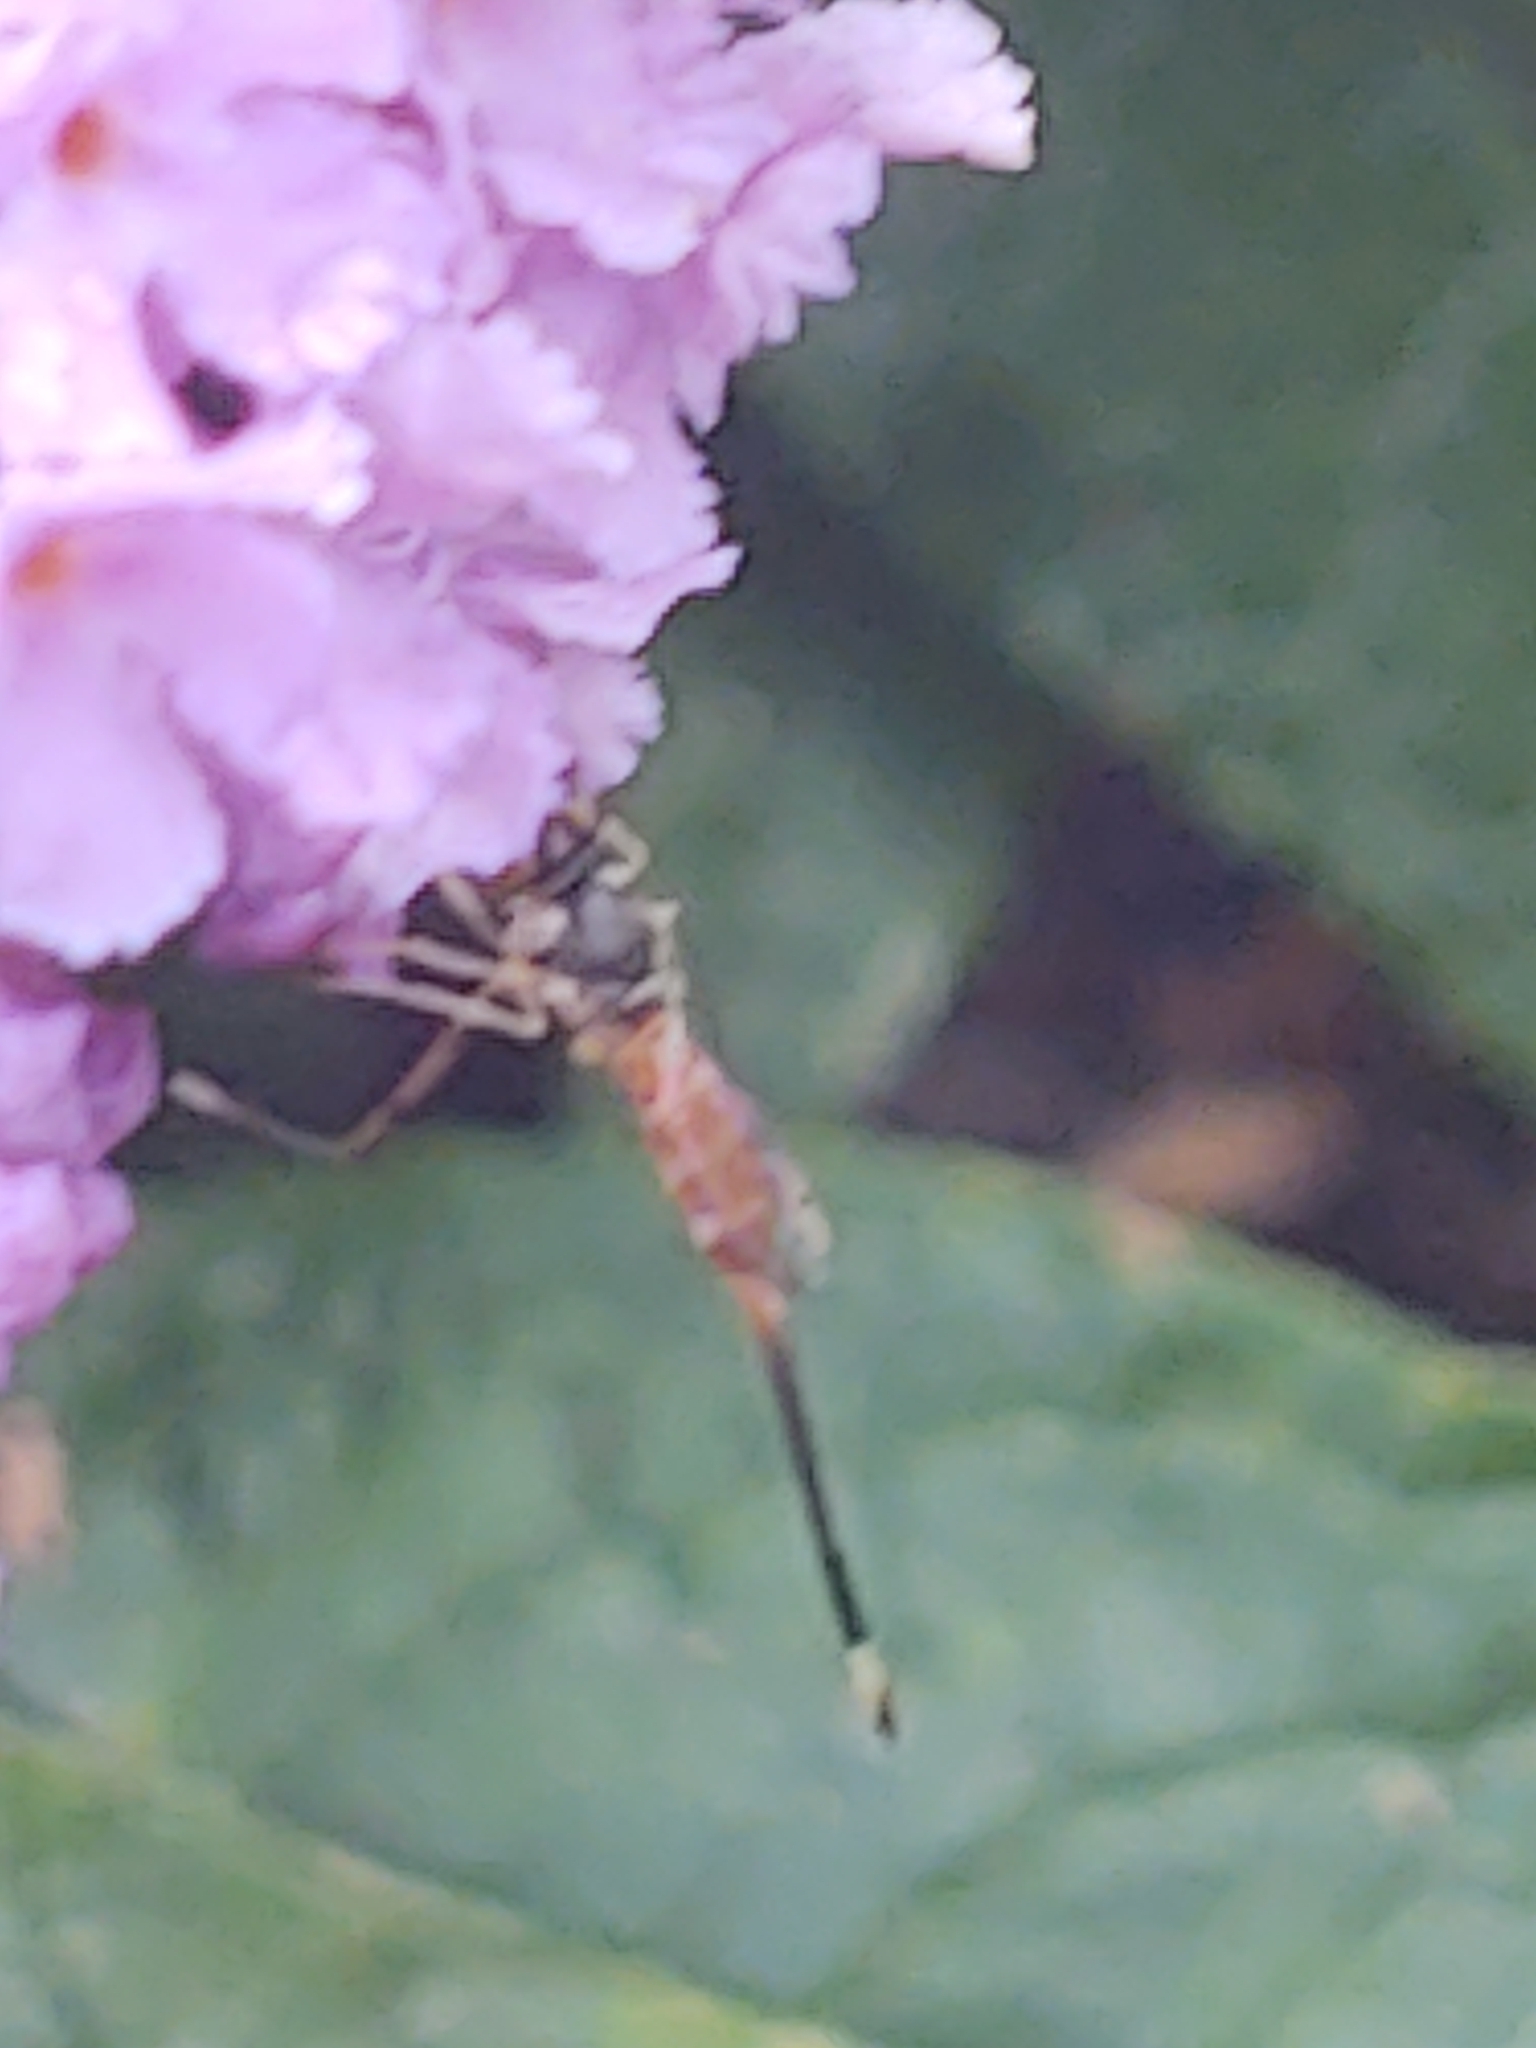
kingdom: Animalia
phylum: Arthropoda
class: Insecta
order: Diptera
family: Conopidae
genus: Stylogaster
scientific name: Stylogaster neglecta
